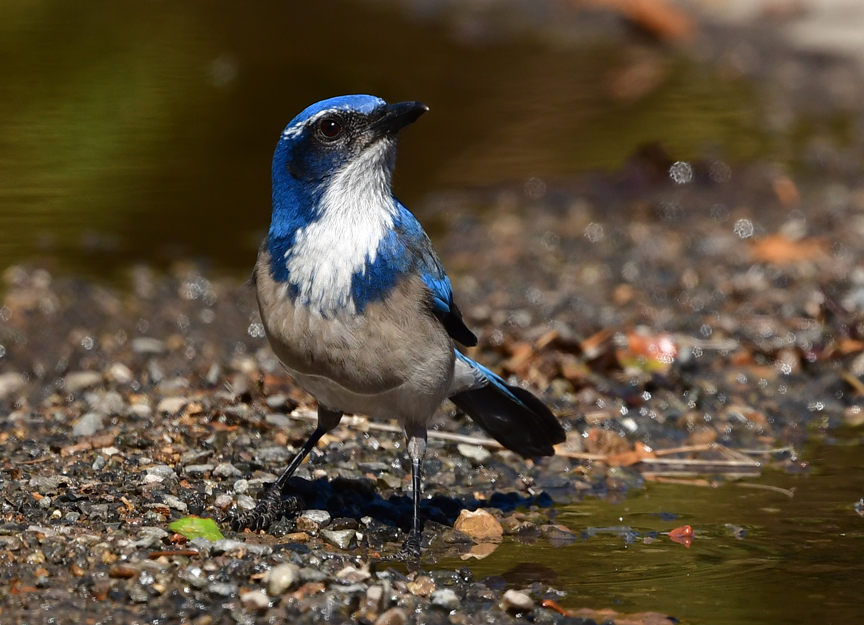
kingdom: Animalia
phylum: Chordata
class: Aves
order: Passeriformes
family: Corvidae
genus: Aphelocoma
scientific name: Aphelocoma californica
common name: California scrub-jay
